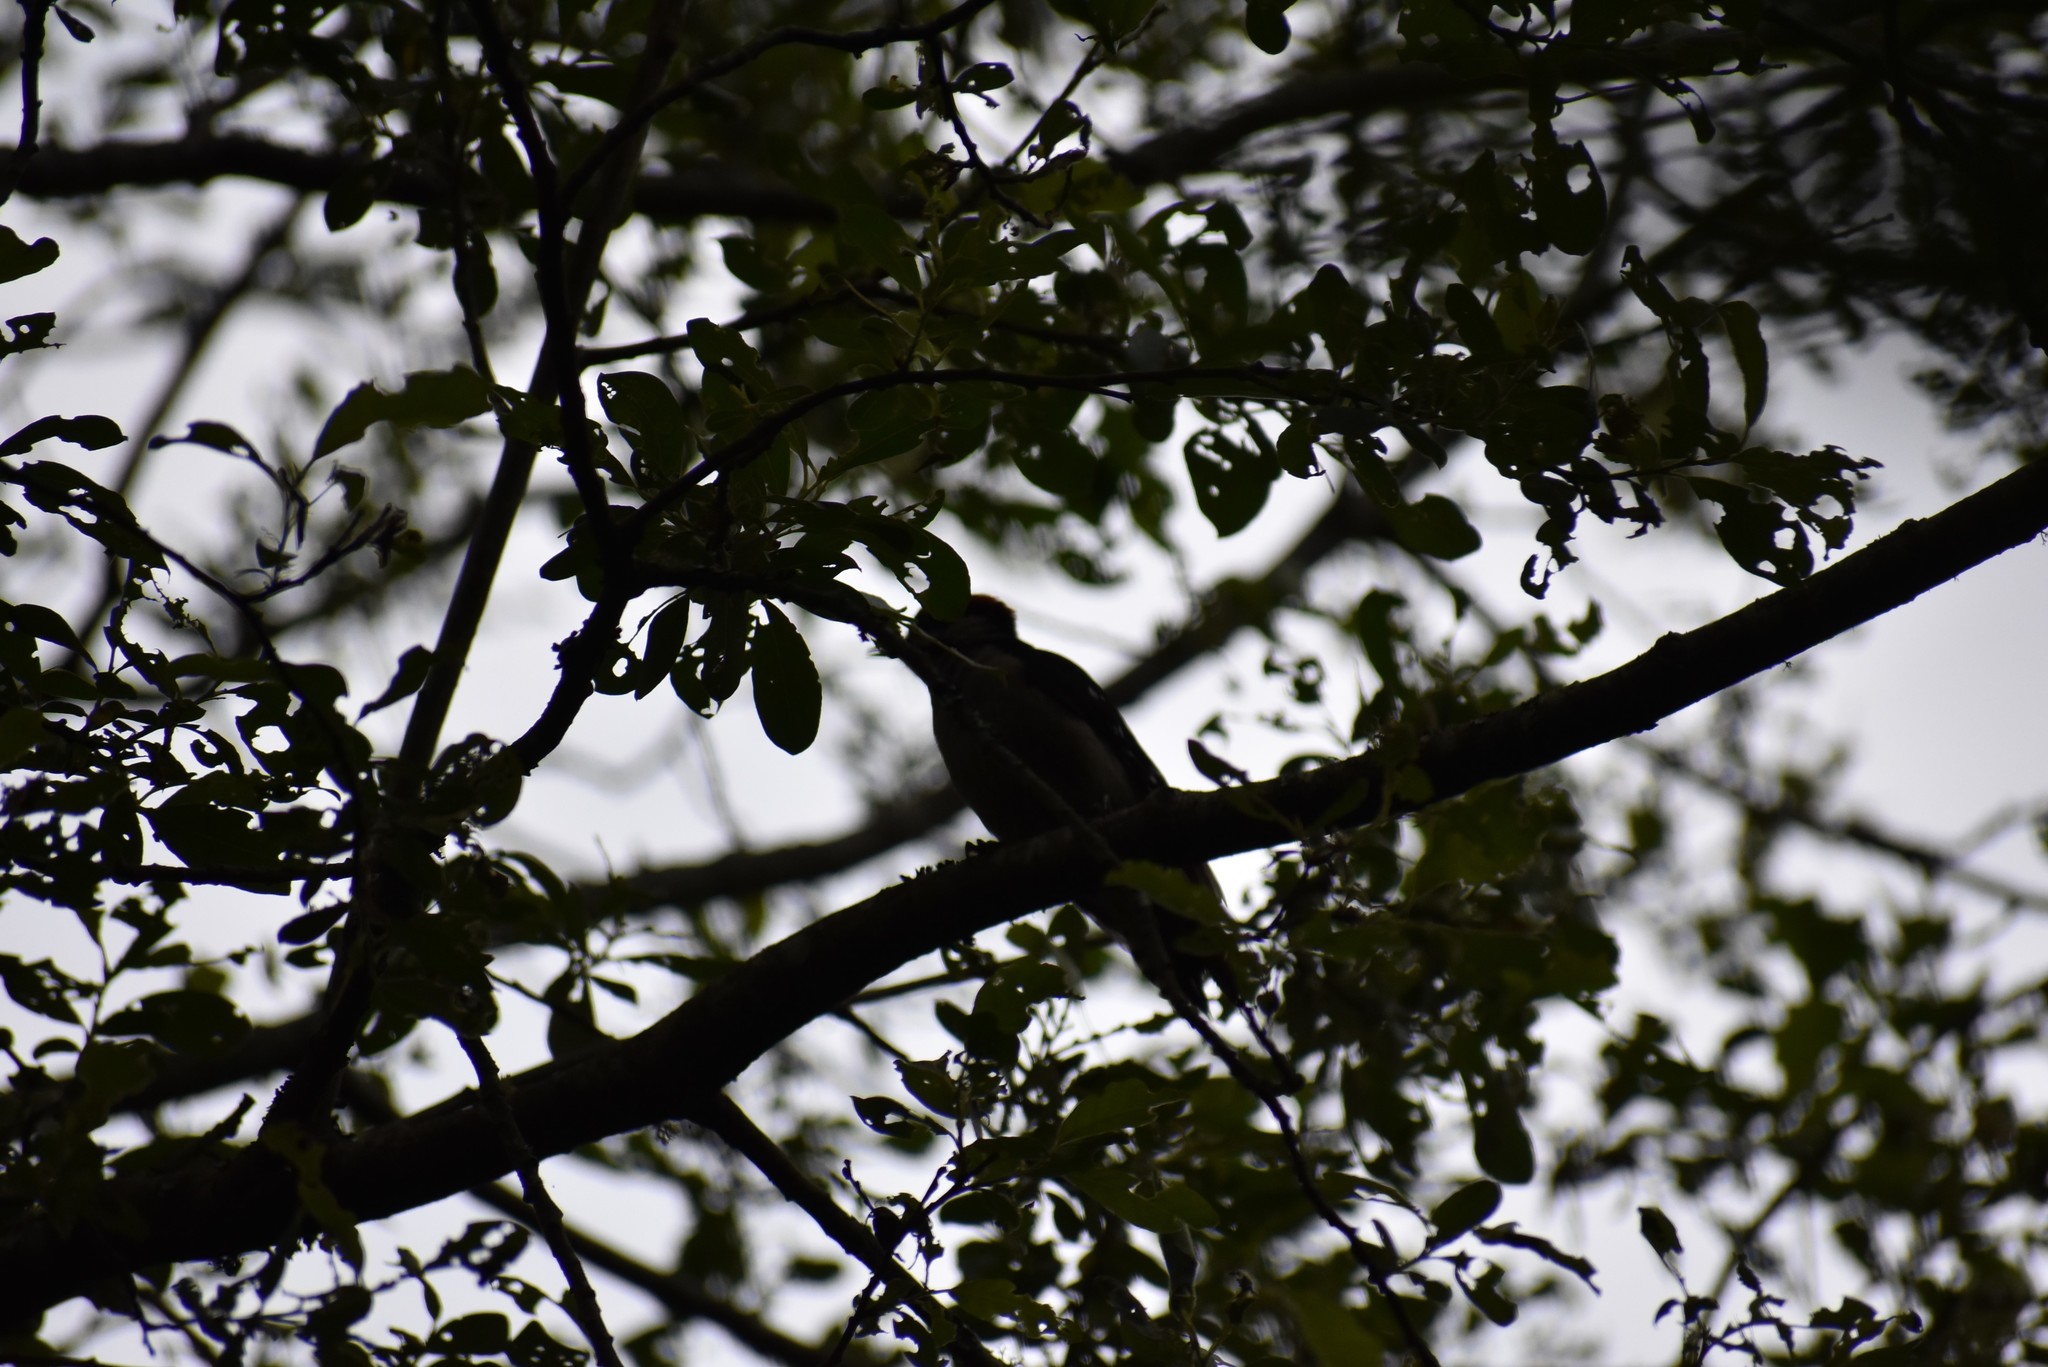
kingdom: Animalia
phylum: Chordata
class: Aves
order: Piciformes
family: Picidae
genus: Dryobates
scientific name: Dryobates pubescens
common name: Downy woodpecker
